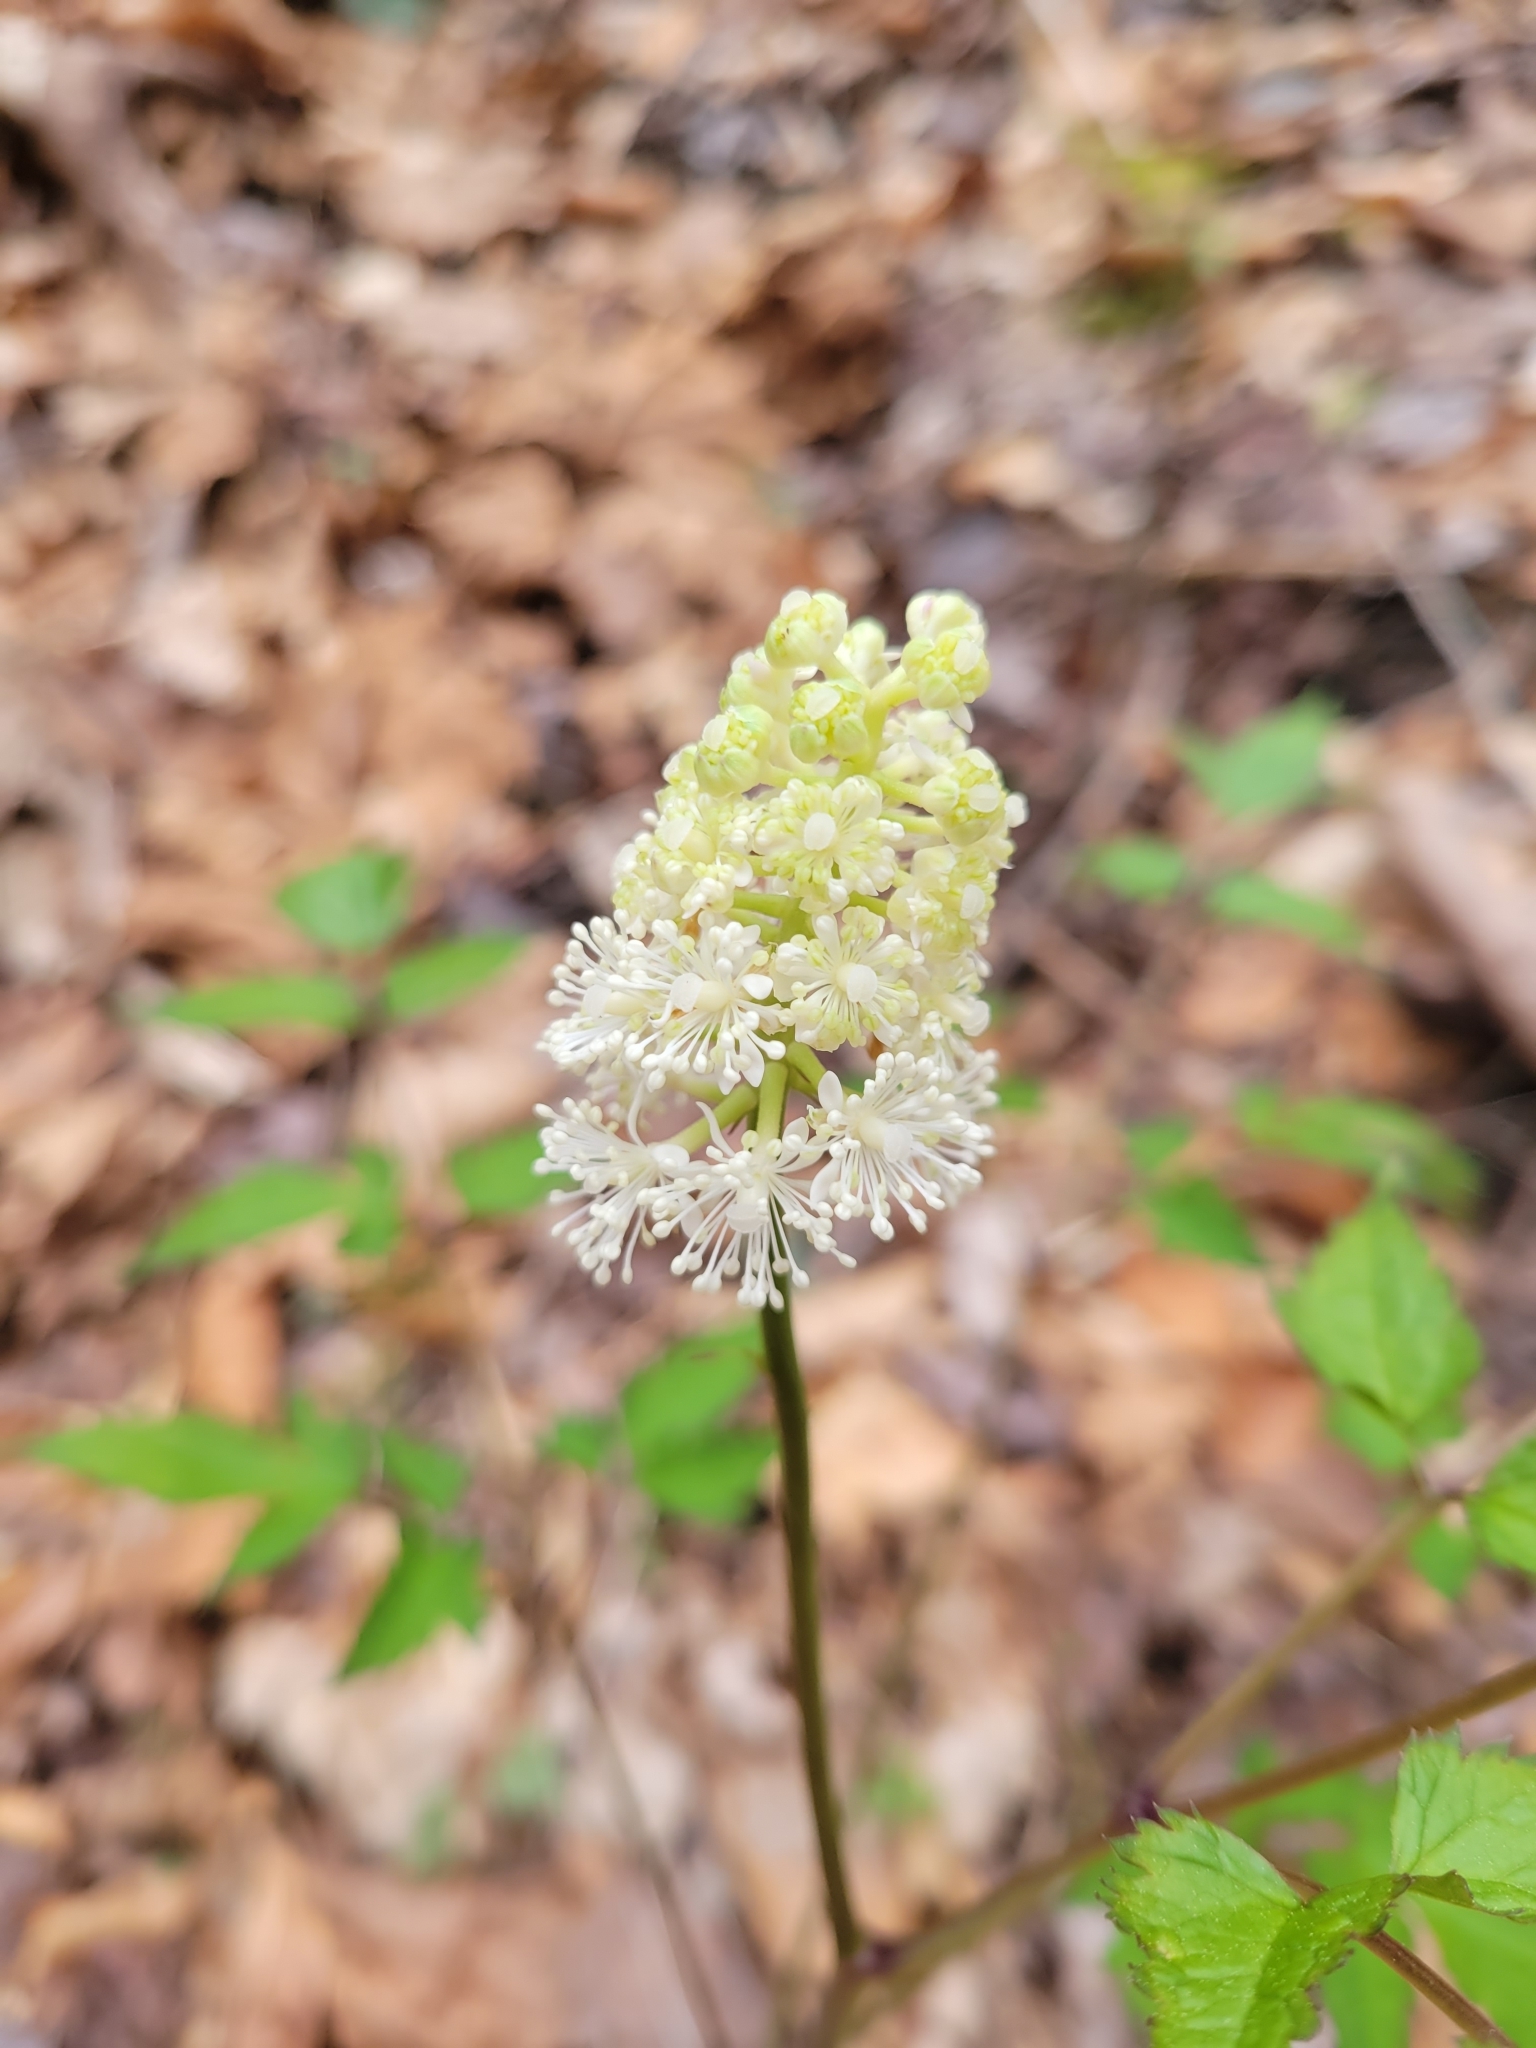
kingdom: Plantae
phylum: Tracheophyta
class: Magnoliopsida
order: Ranunculales
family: Ranunculaceae
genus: Actaea
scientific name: Actaea pachypoda
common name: Doll's-eyes
